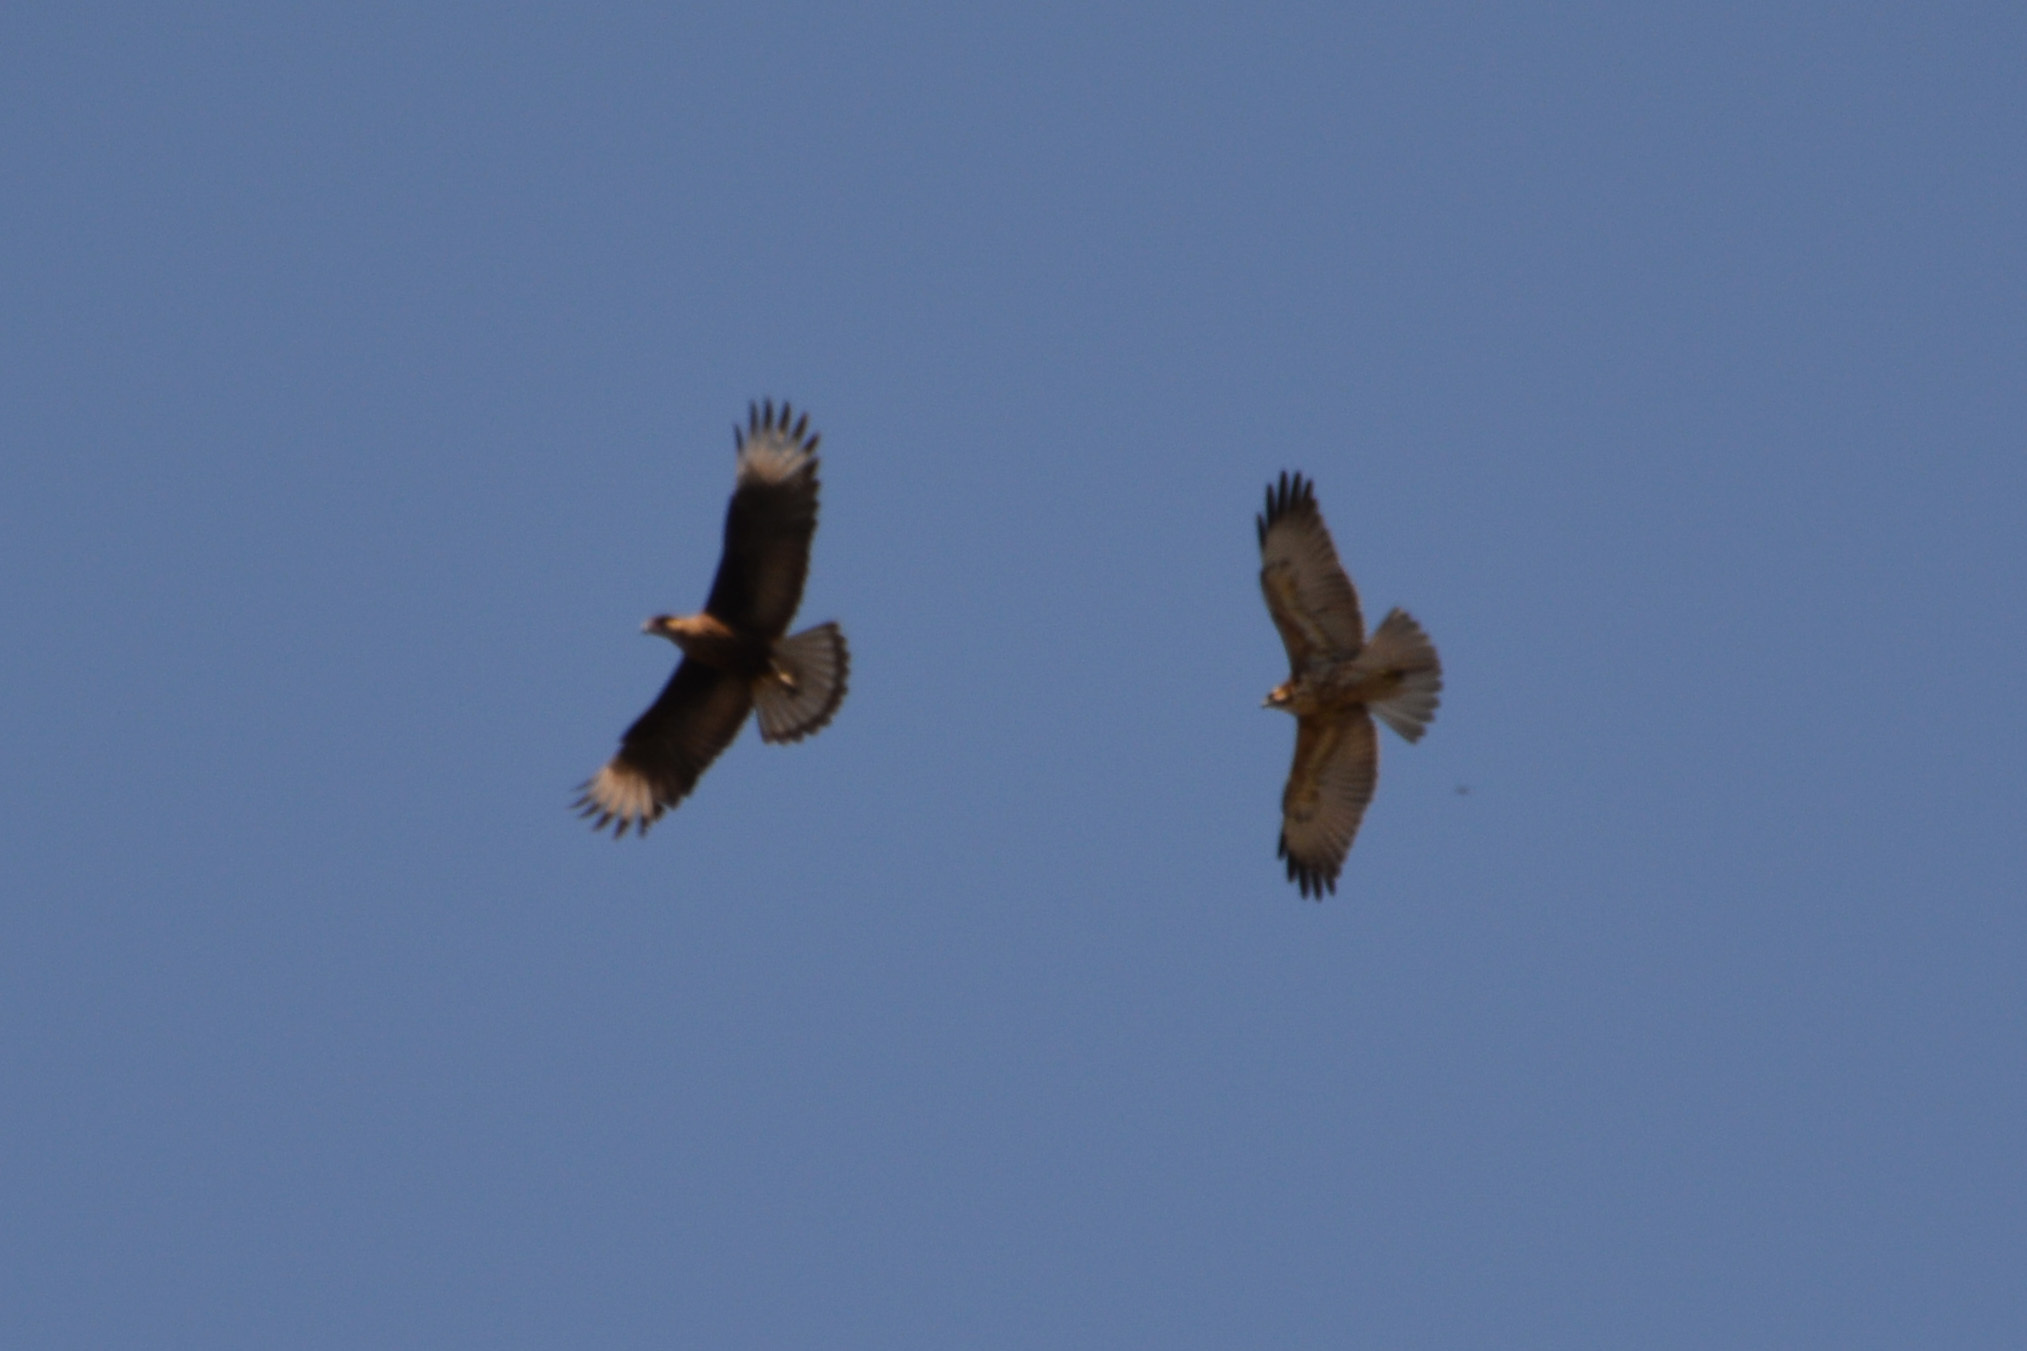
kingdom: Animalia
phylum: Chordata
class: Aves
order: Falconiformes
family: Falconidae
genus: Caracara
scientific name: Caracara plancus
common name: Southern caracara
